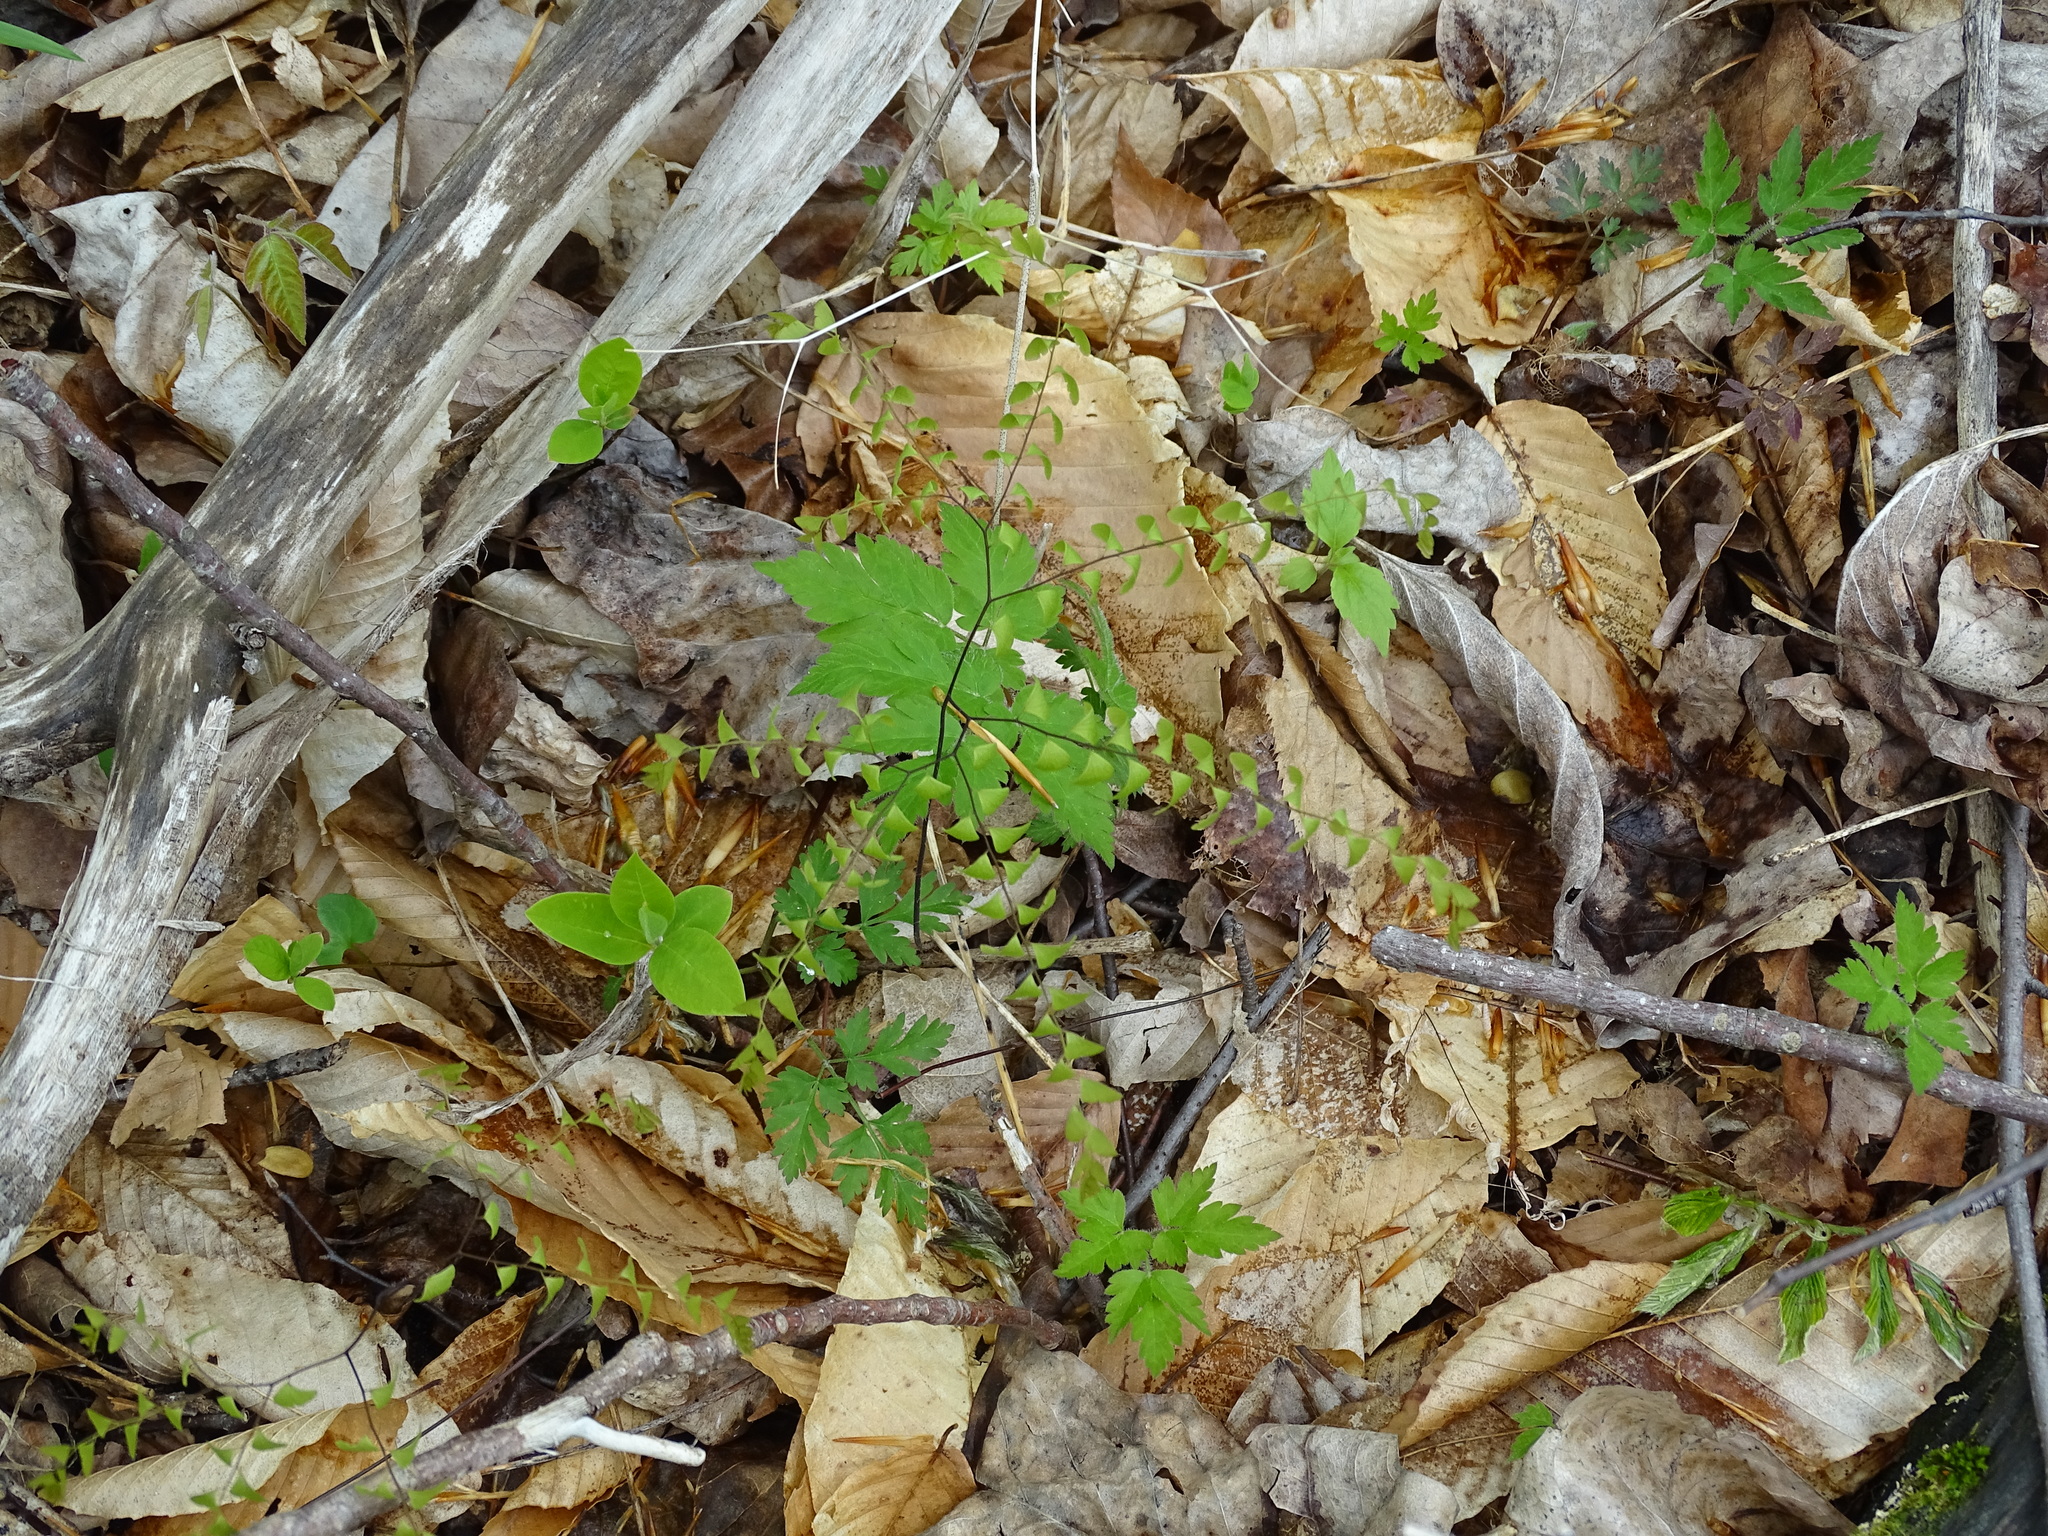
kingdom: Plantae
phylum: Tracheophyta
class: Polypodiopsida
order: Polypodiales
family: Pteridaceae
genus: Adiantum
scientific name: Adiantum pedatum
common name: Five-finger fern
